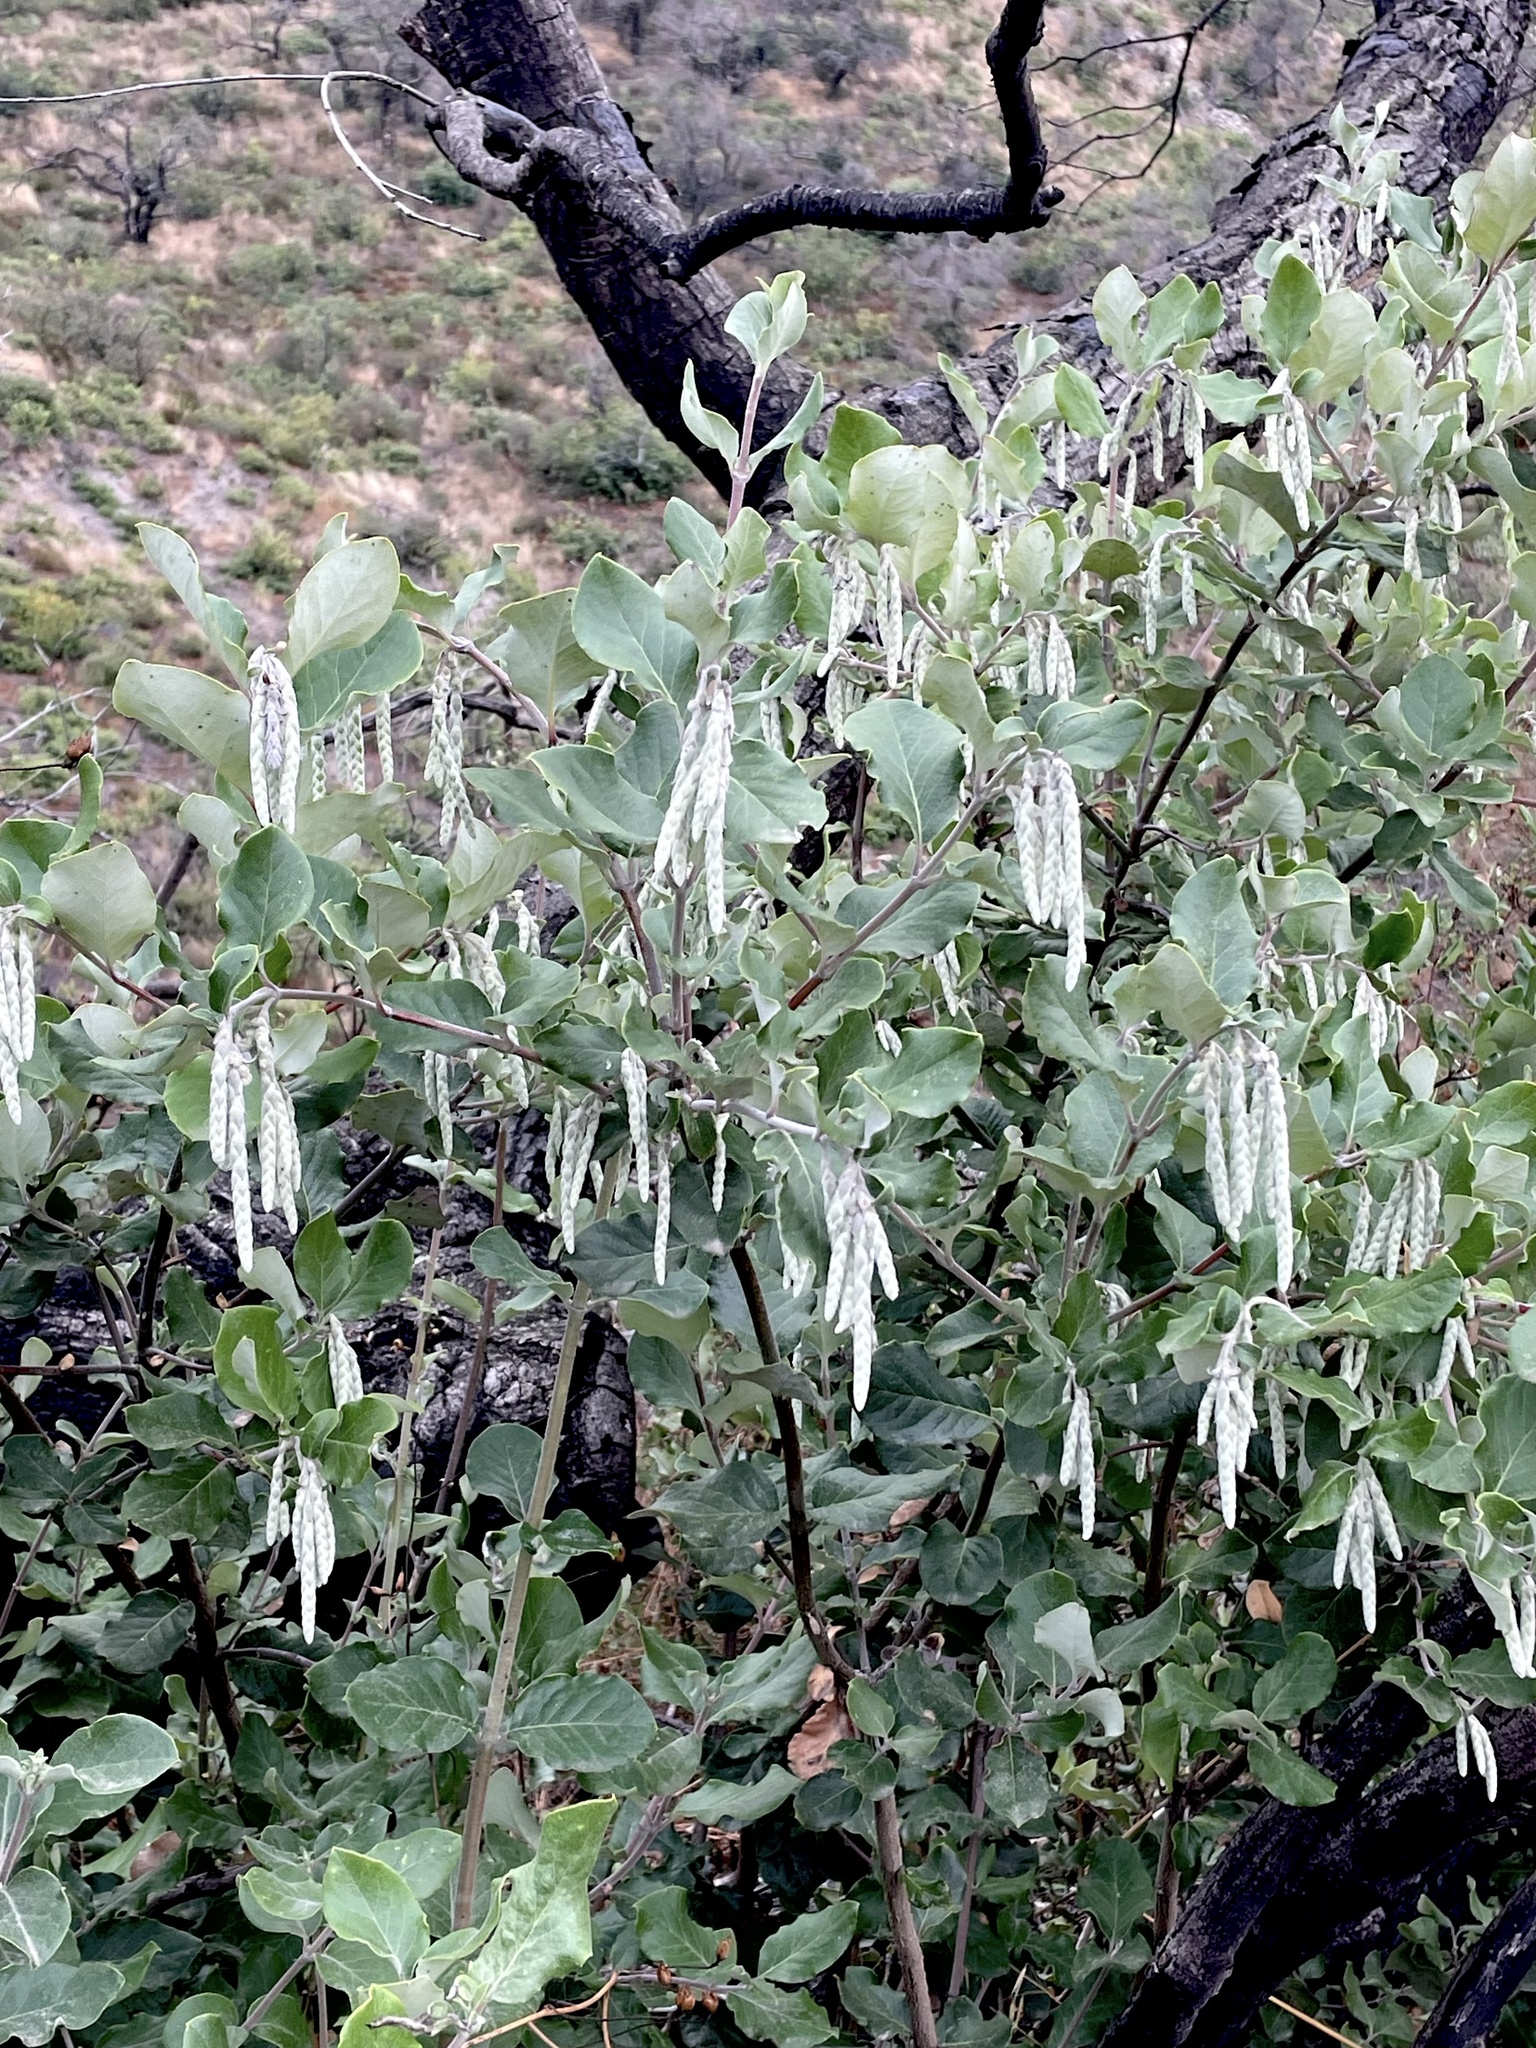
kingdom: Plantae
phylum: Tracheophyta
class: Magnoliopsida
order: Garryales
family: Garryaceae
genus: Garrya
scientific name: Garrya elliptica
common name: Silk-tassel
